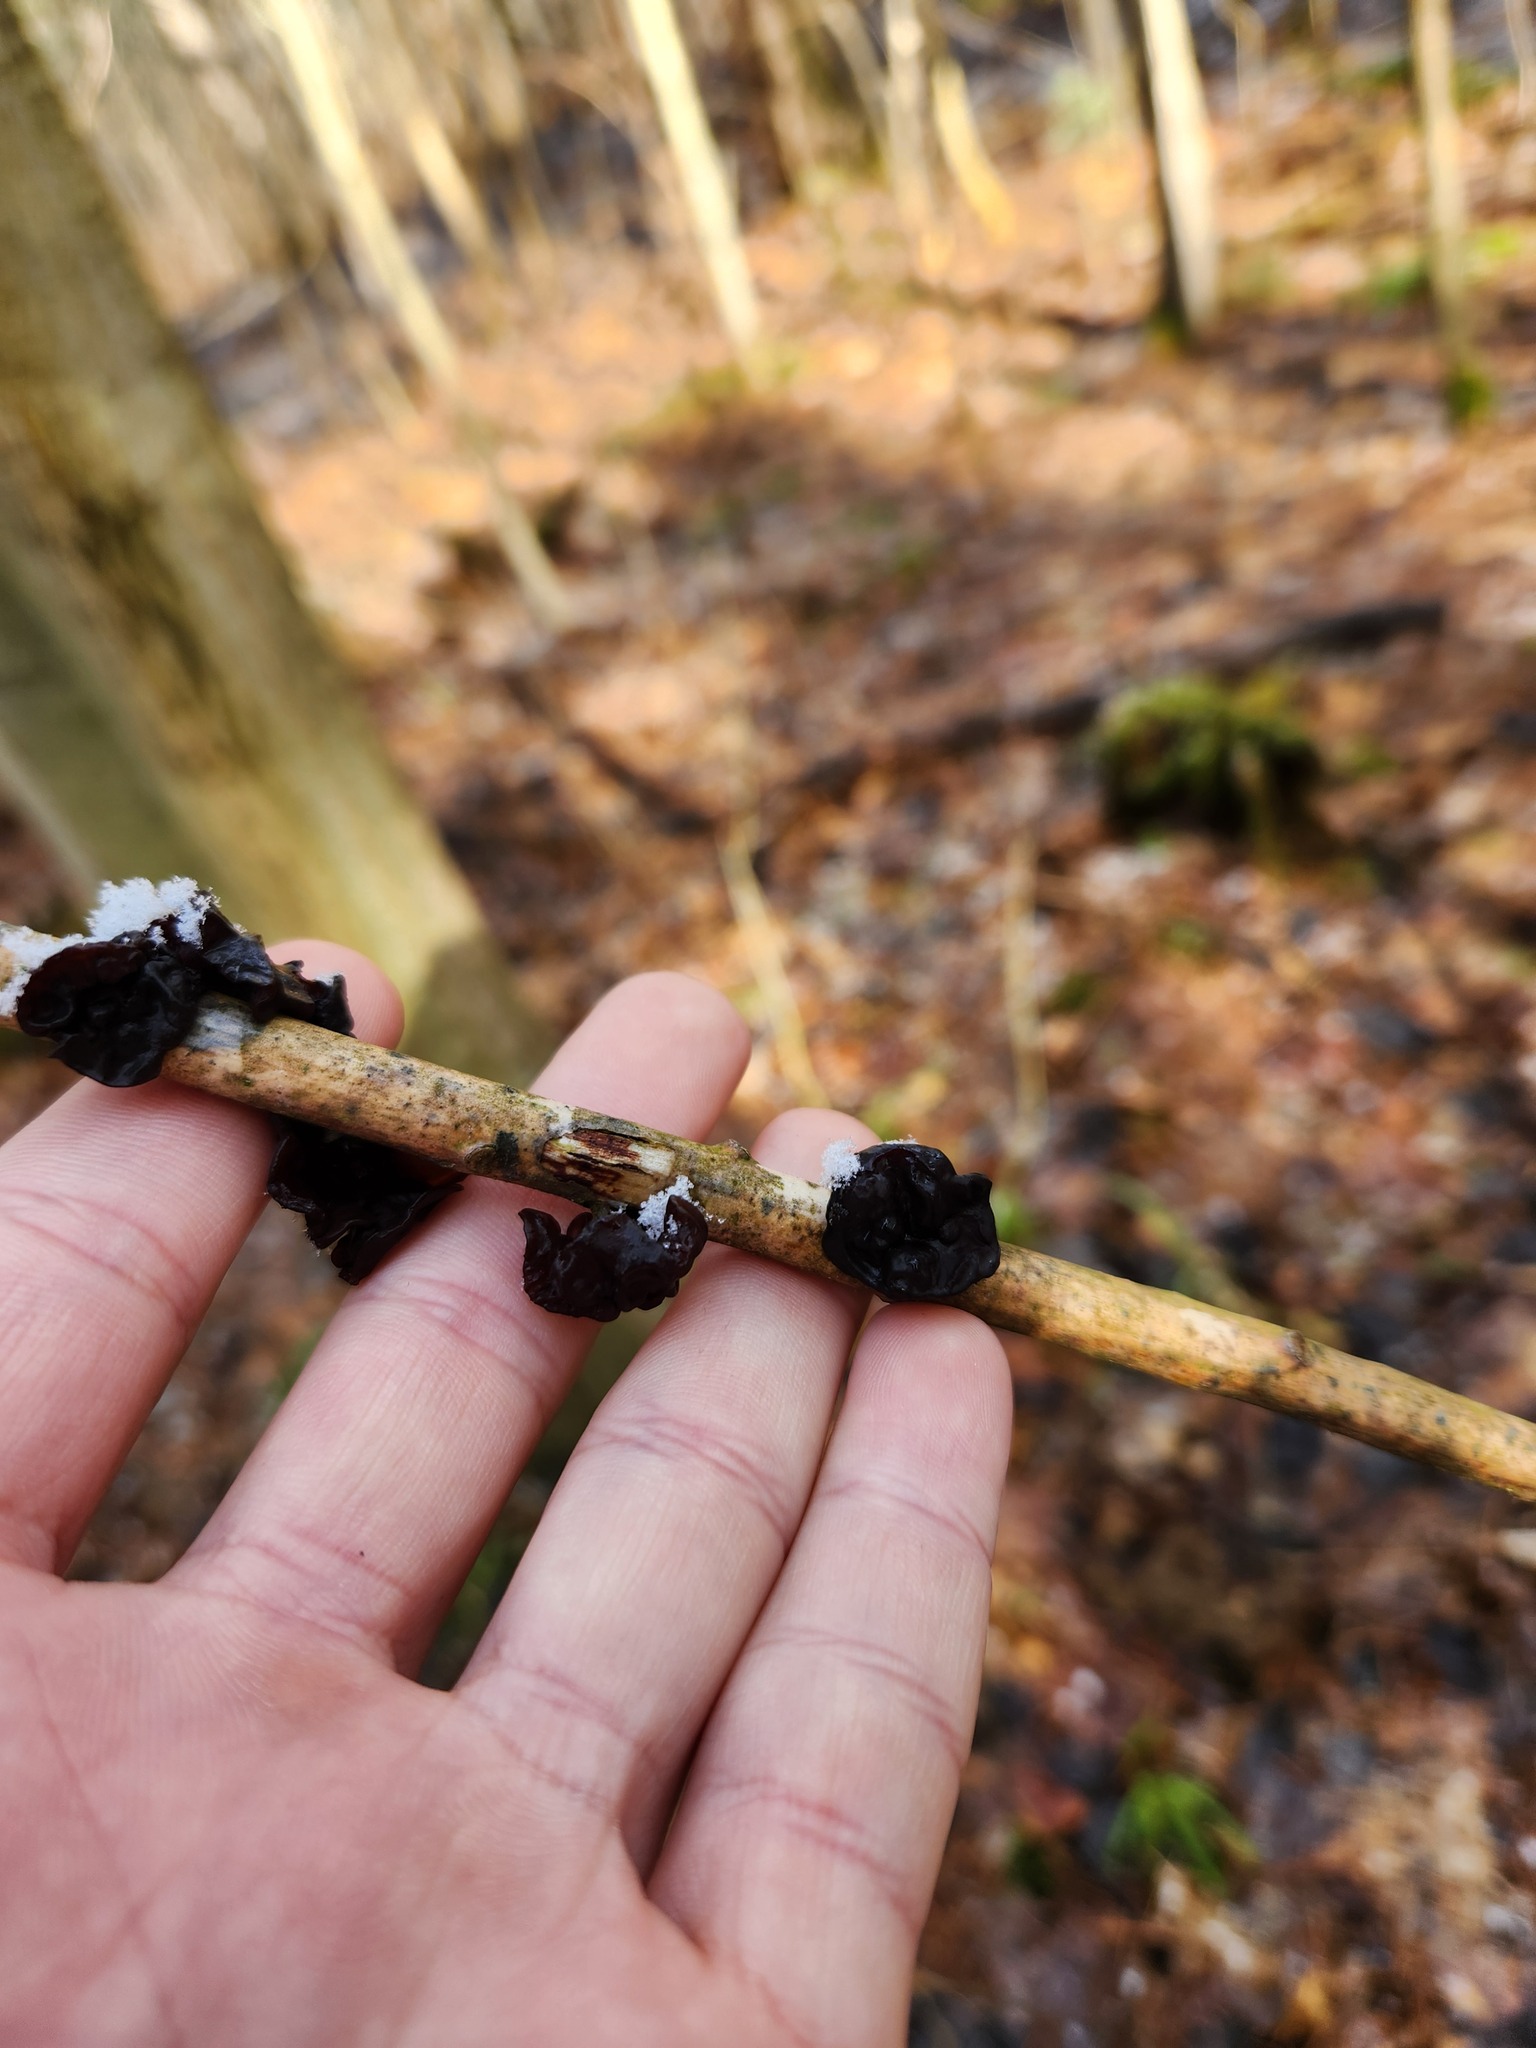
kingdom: Fungi
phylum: Basidiomycota
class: Agaricomycetes
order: Auriculariales
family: Auriculariaceae
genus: Exidia
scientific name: Exidia
